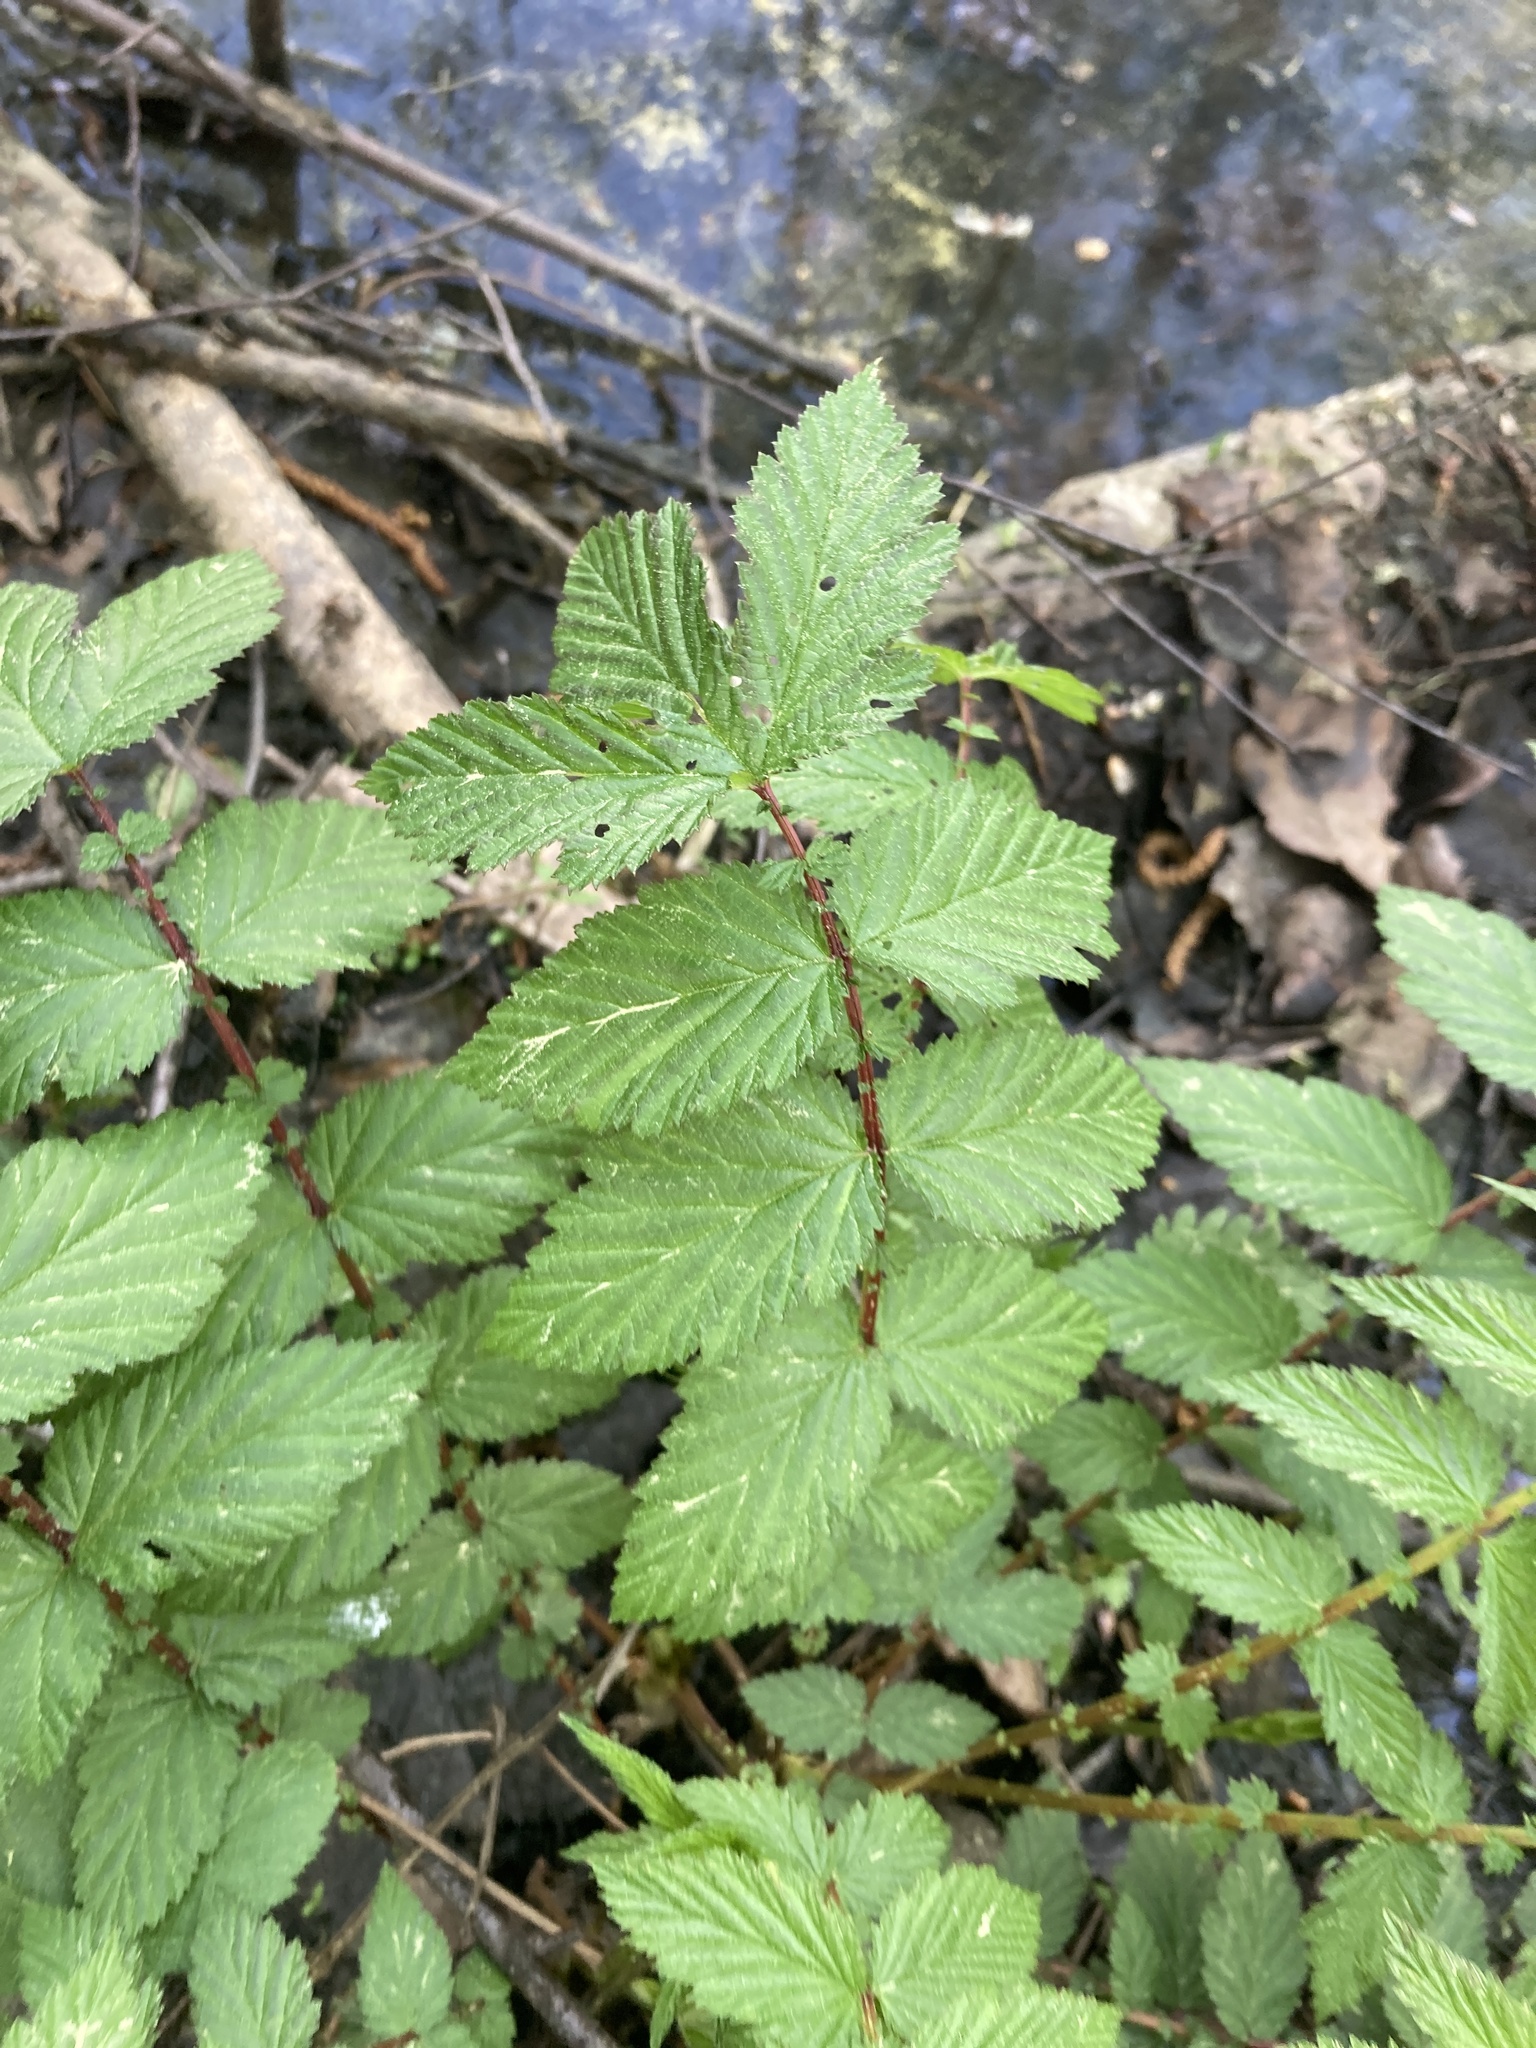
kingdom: Plantae
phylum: Tracheophyta
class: Magnoliopsida
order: Rosales
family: Rosaceae
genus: Filipendula
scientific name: Filipendula ulmaria
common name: Meadowsweet
